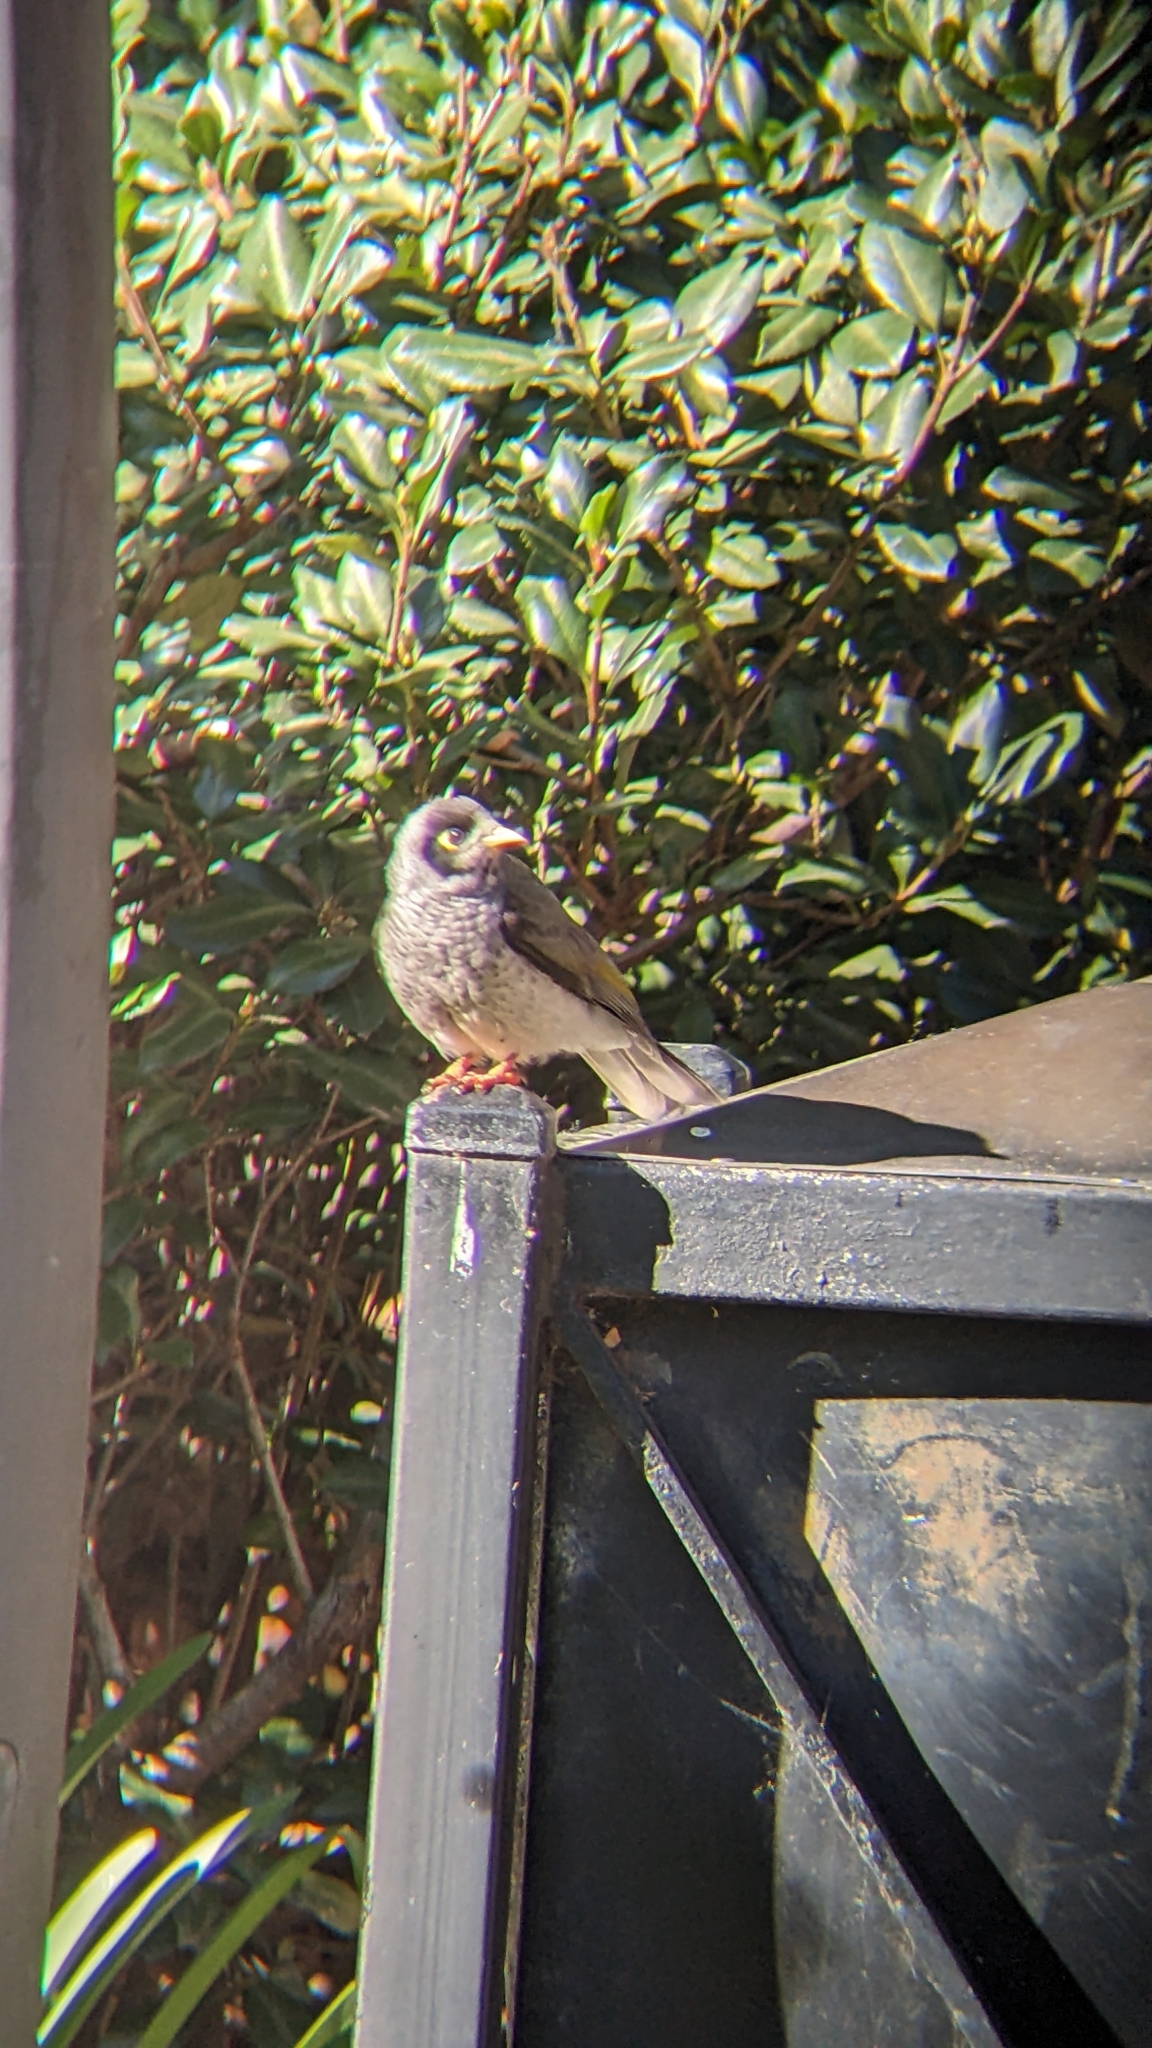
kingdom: Animalia
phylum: Chordata
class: Aves
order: Passeriformes
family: Meliphagidae
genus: Manorina
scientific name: Manorina melanocephala
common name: Noisy miner
